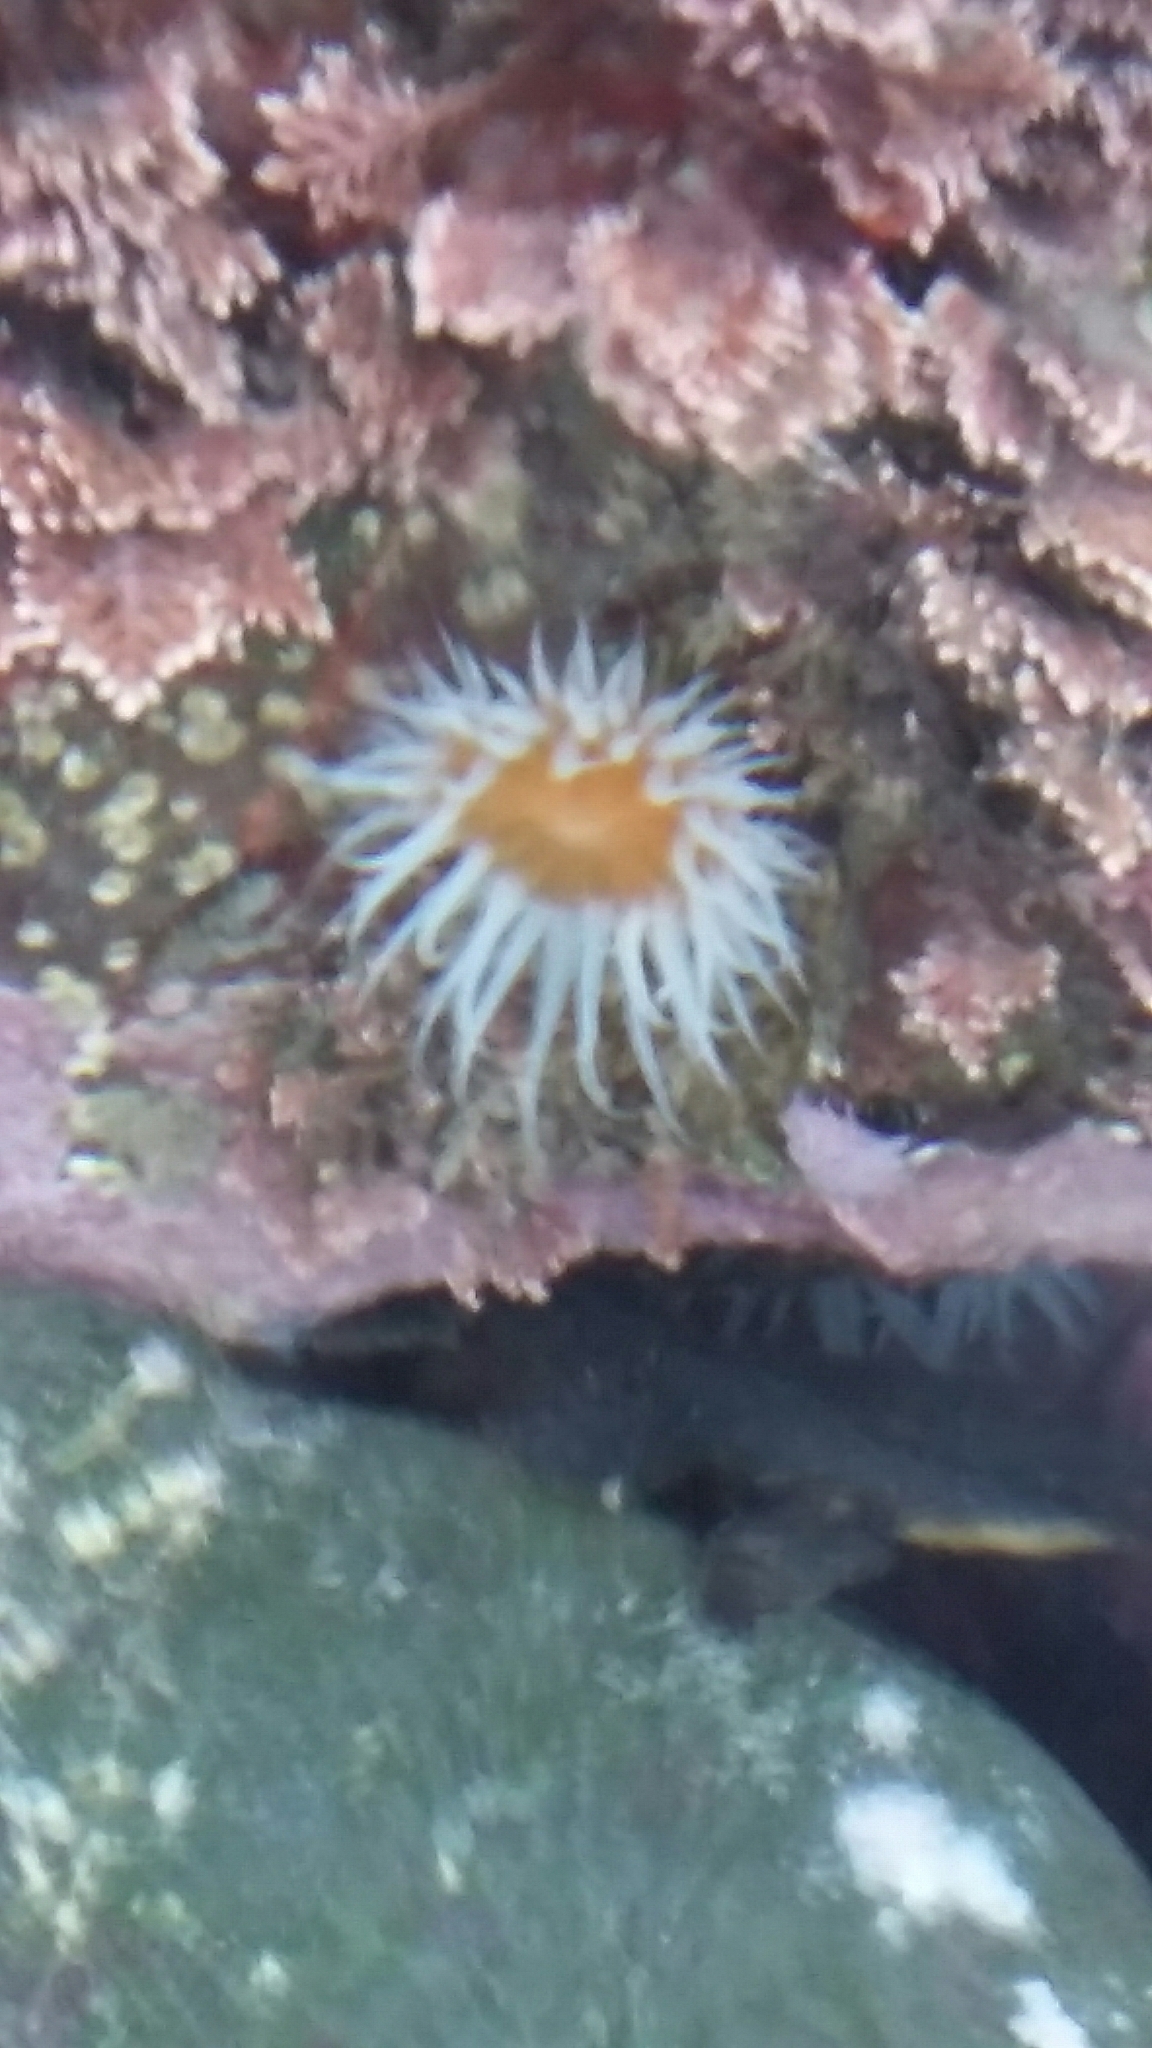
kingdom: Animalia
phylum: Cnidaria
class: Anthozoa
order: Actiniaria
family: Sagartiidae
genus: Anthothoe
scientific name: Anthothoe albocincta
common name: Orange striped anemone
